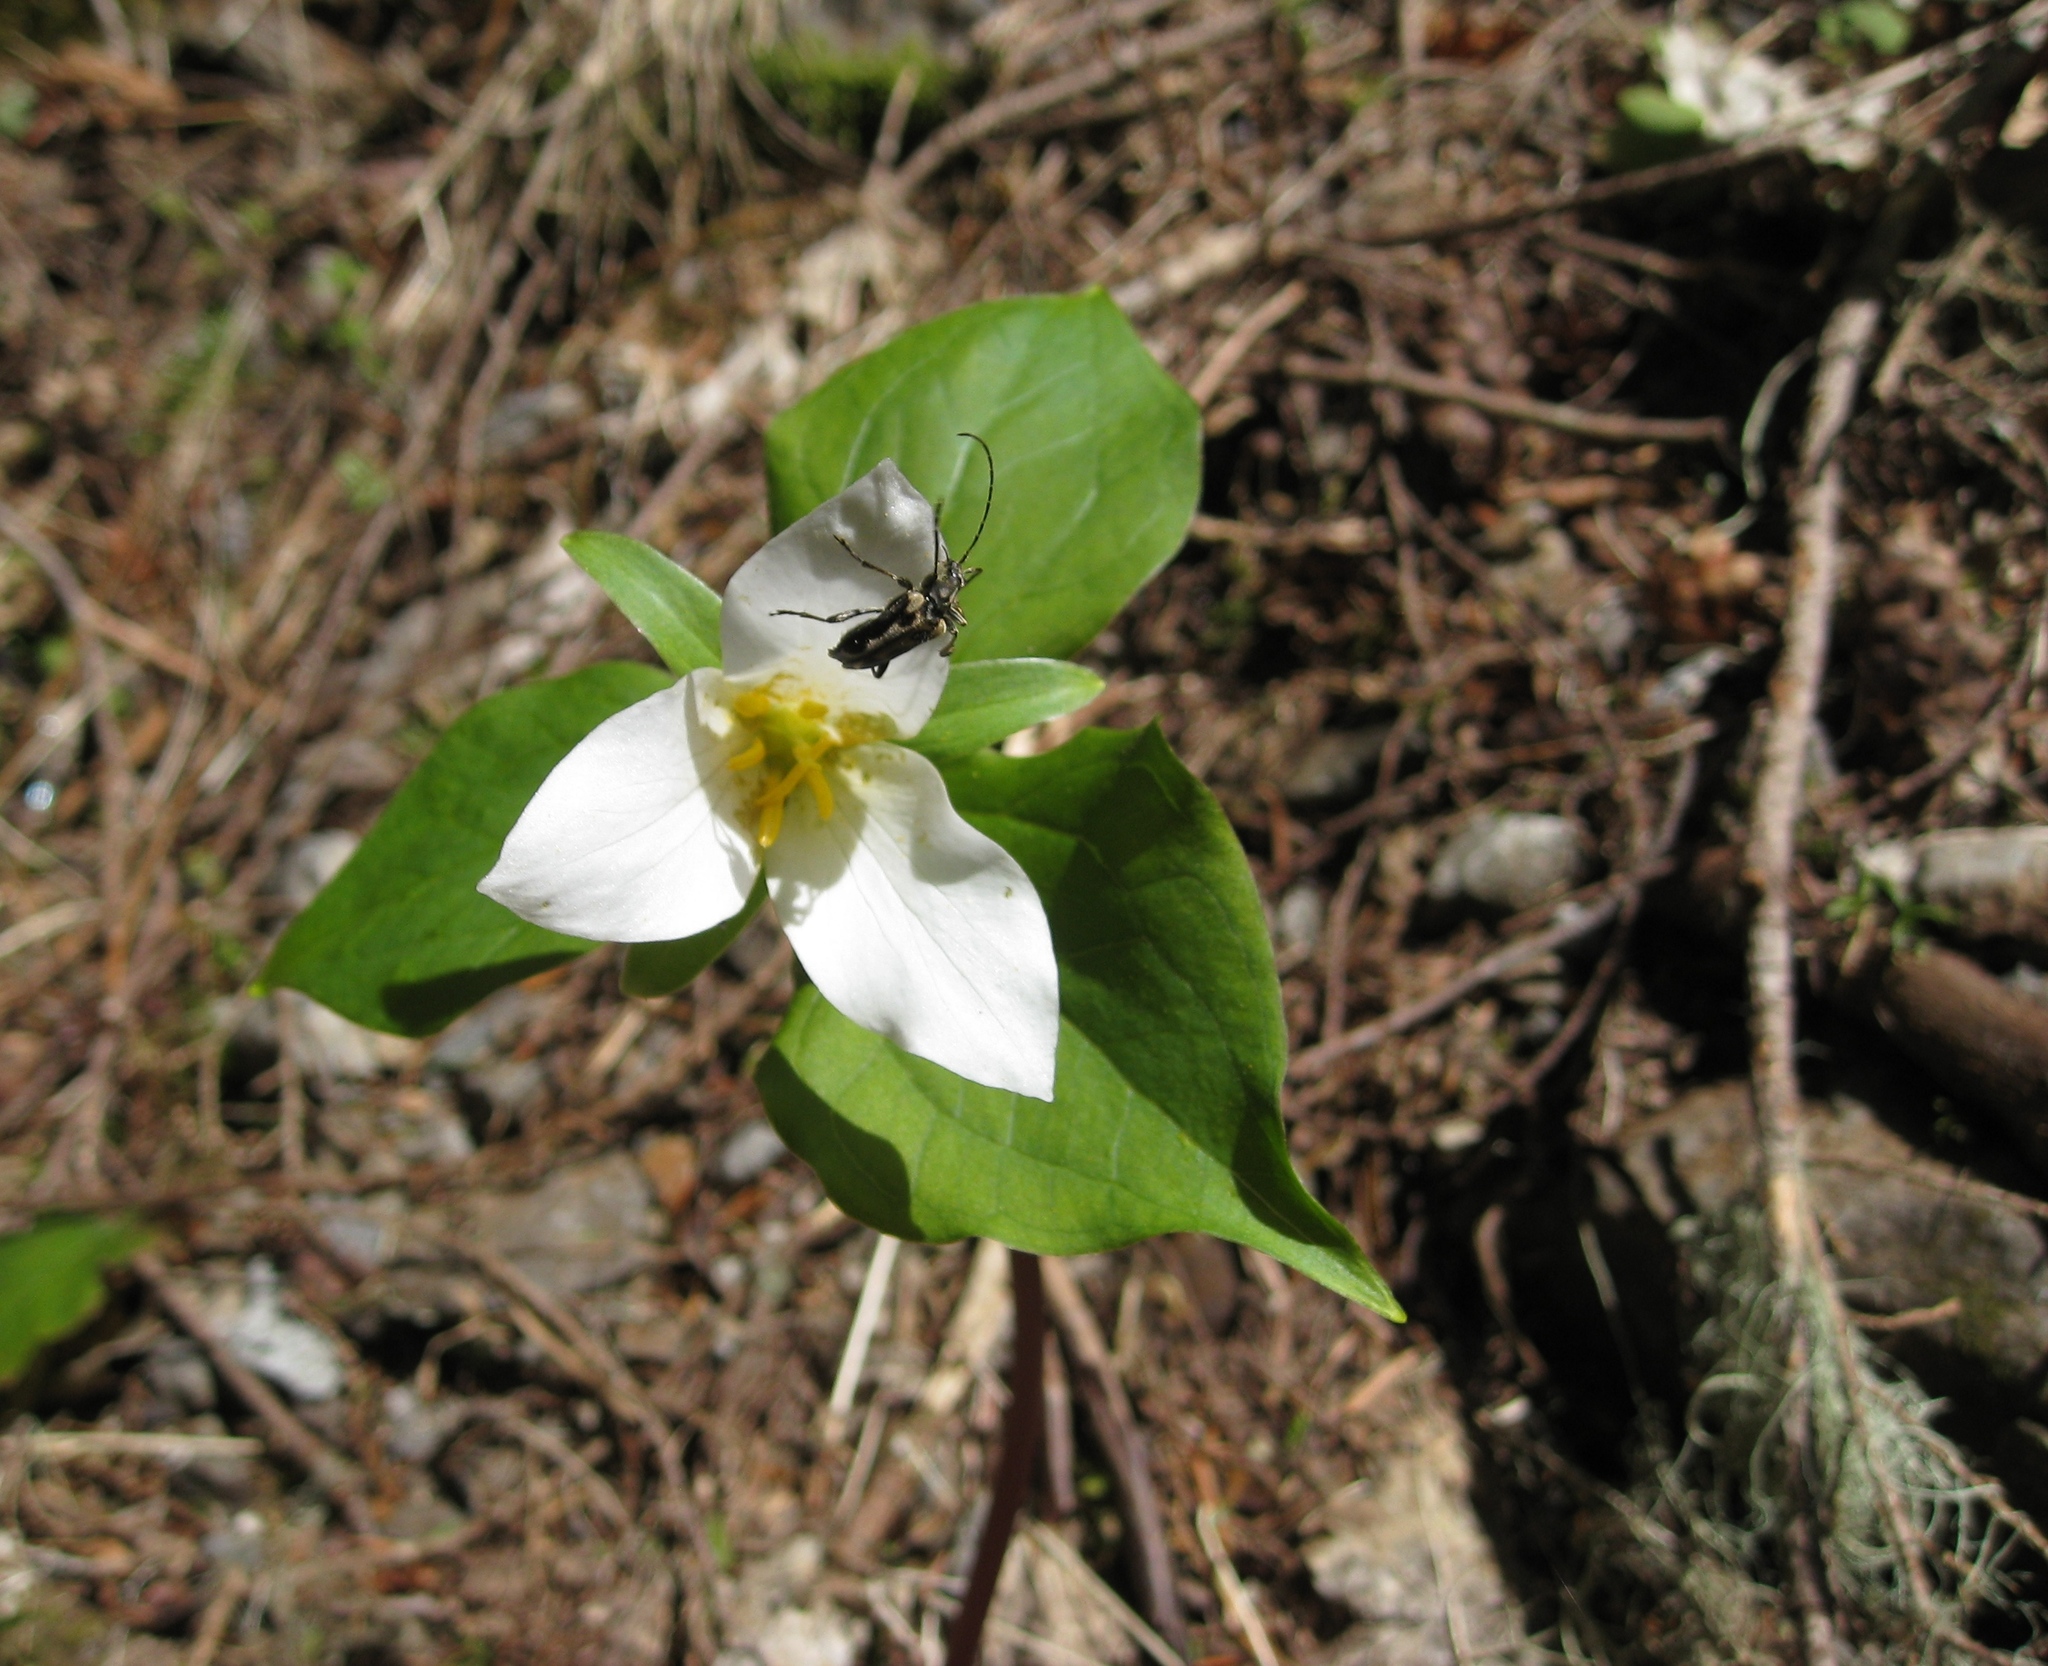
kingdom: Plantae
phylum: Tracheophyta
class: Liliopsida
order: Liliales
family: Melanthiaceae
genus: Trillium
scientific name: Trillium ovatum
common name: Pacific trillium
